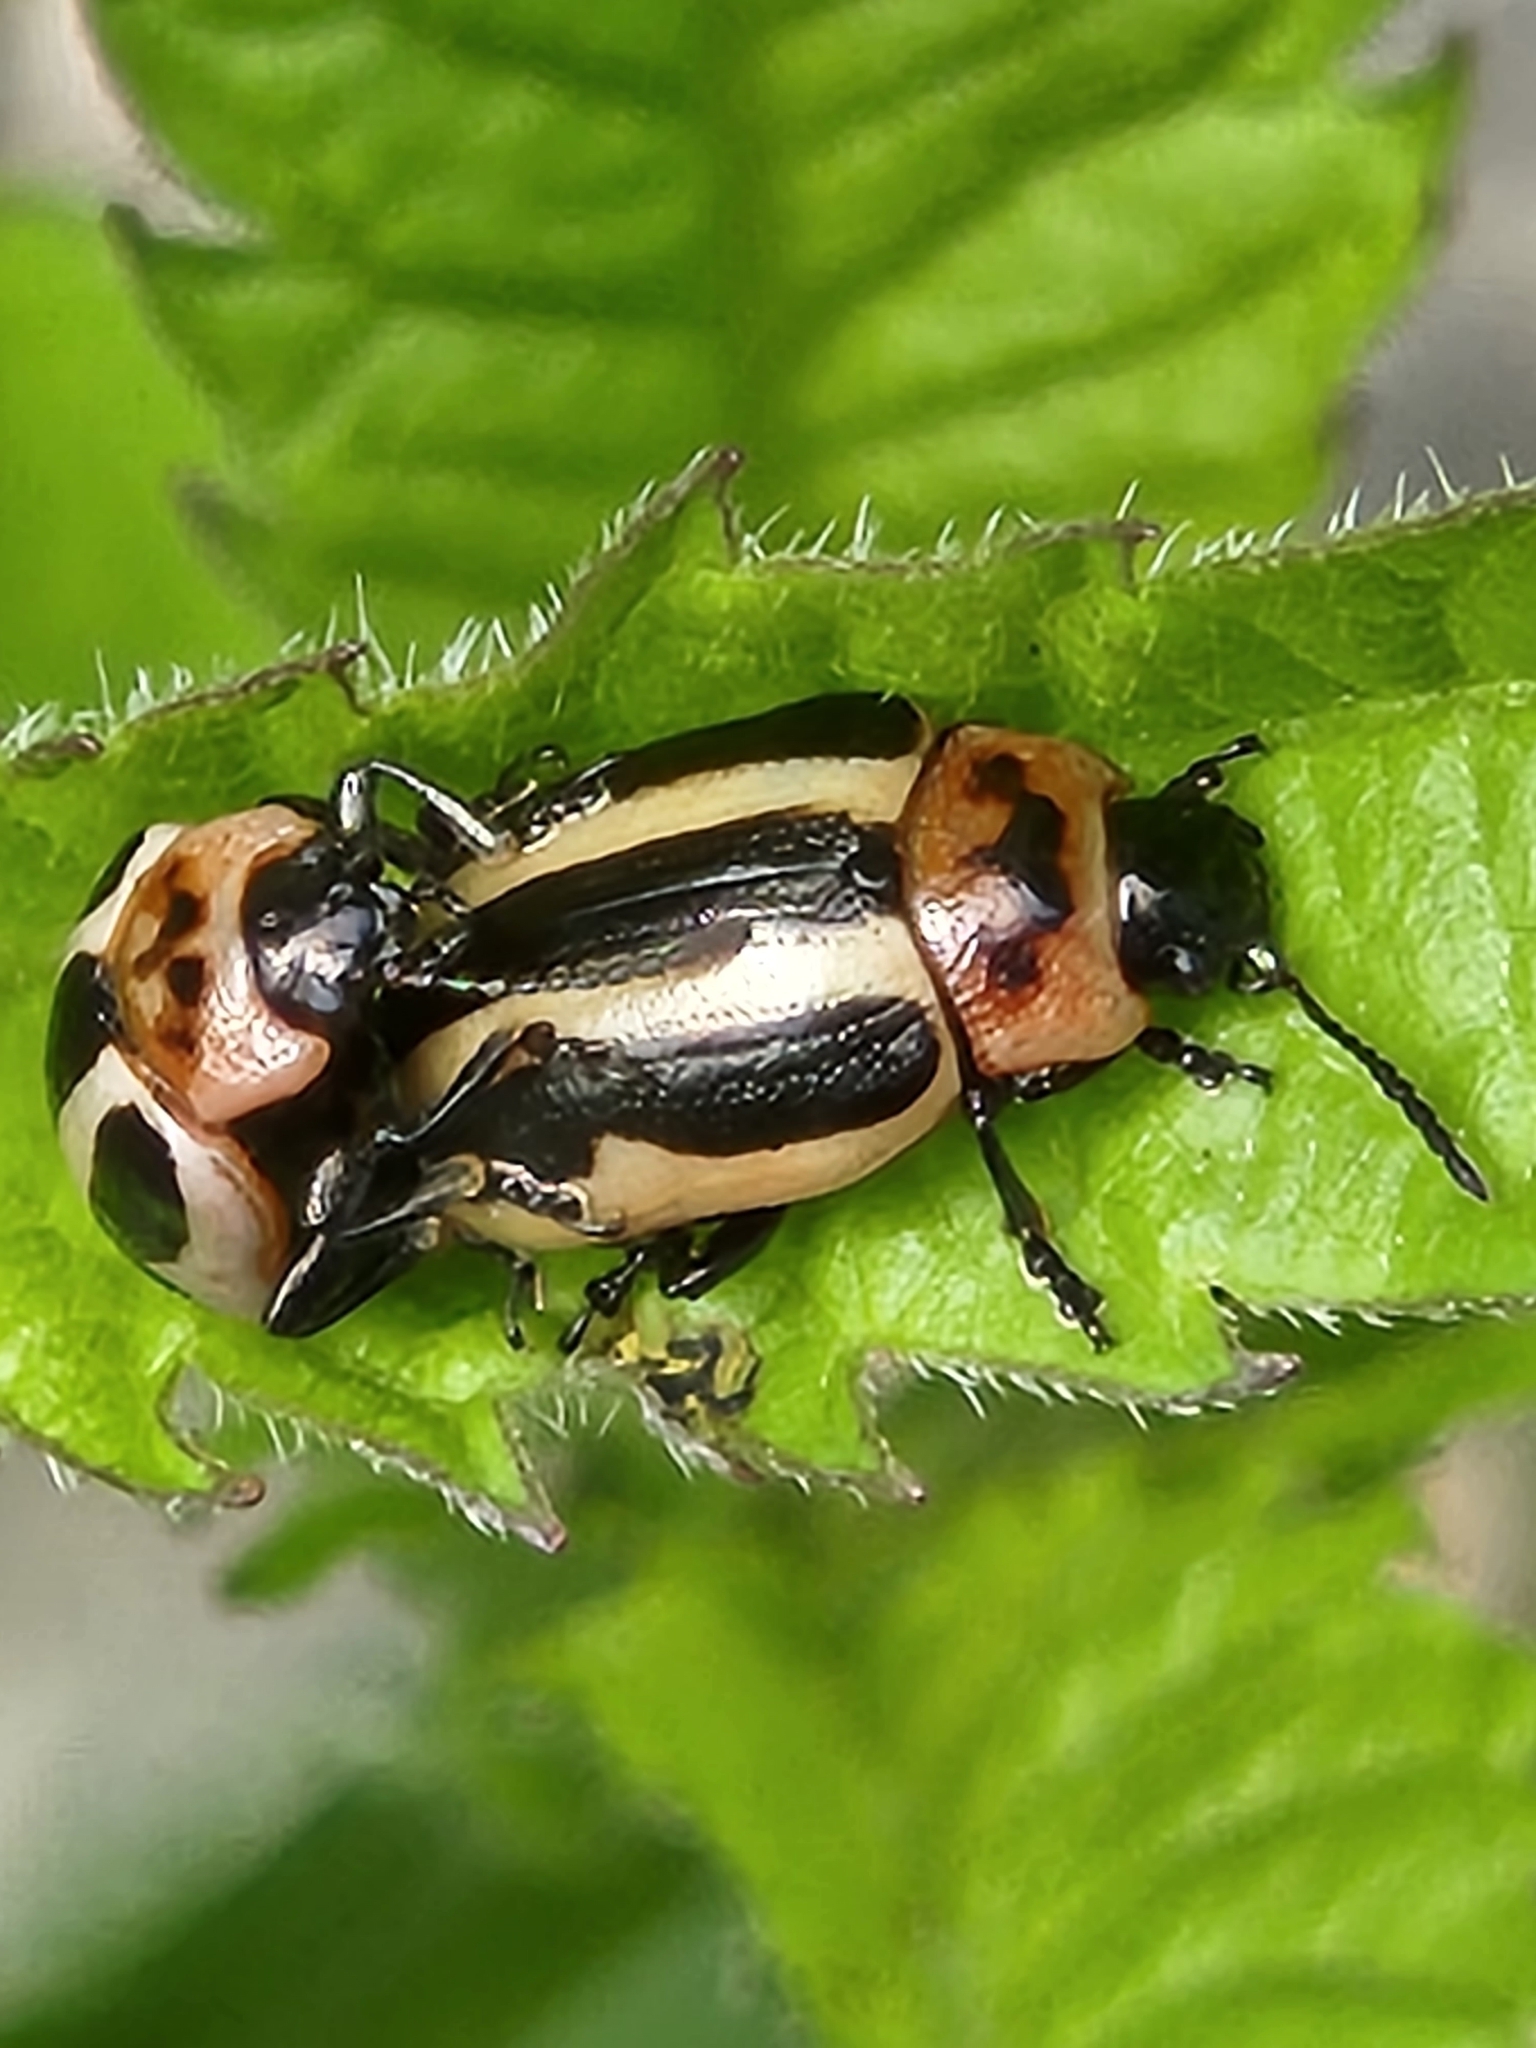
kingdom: Animalia
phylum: Arthropoda
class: Insecta
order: Coleoptera
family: Chrysomelidae
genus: Calligrapha
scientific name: Calligrapha californica
